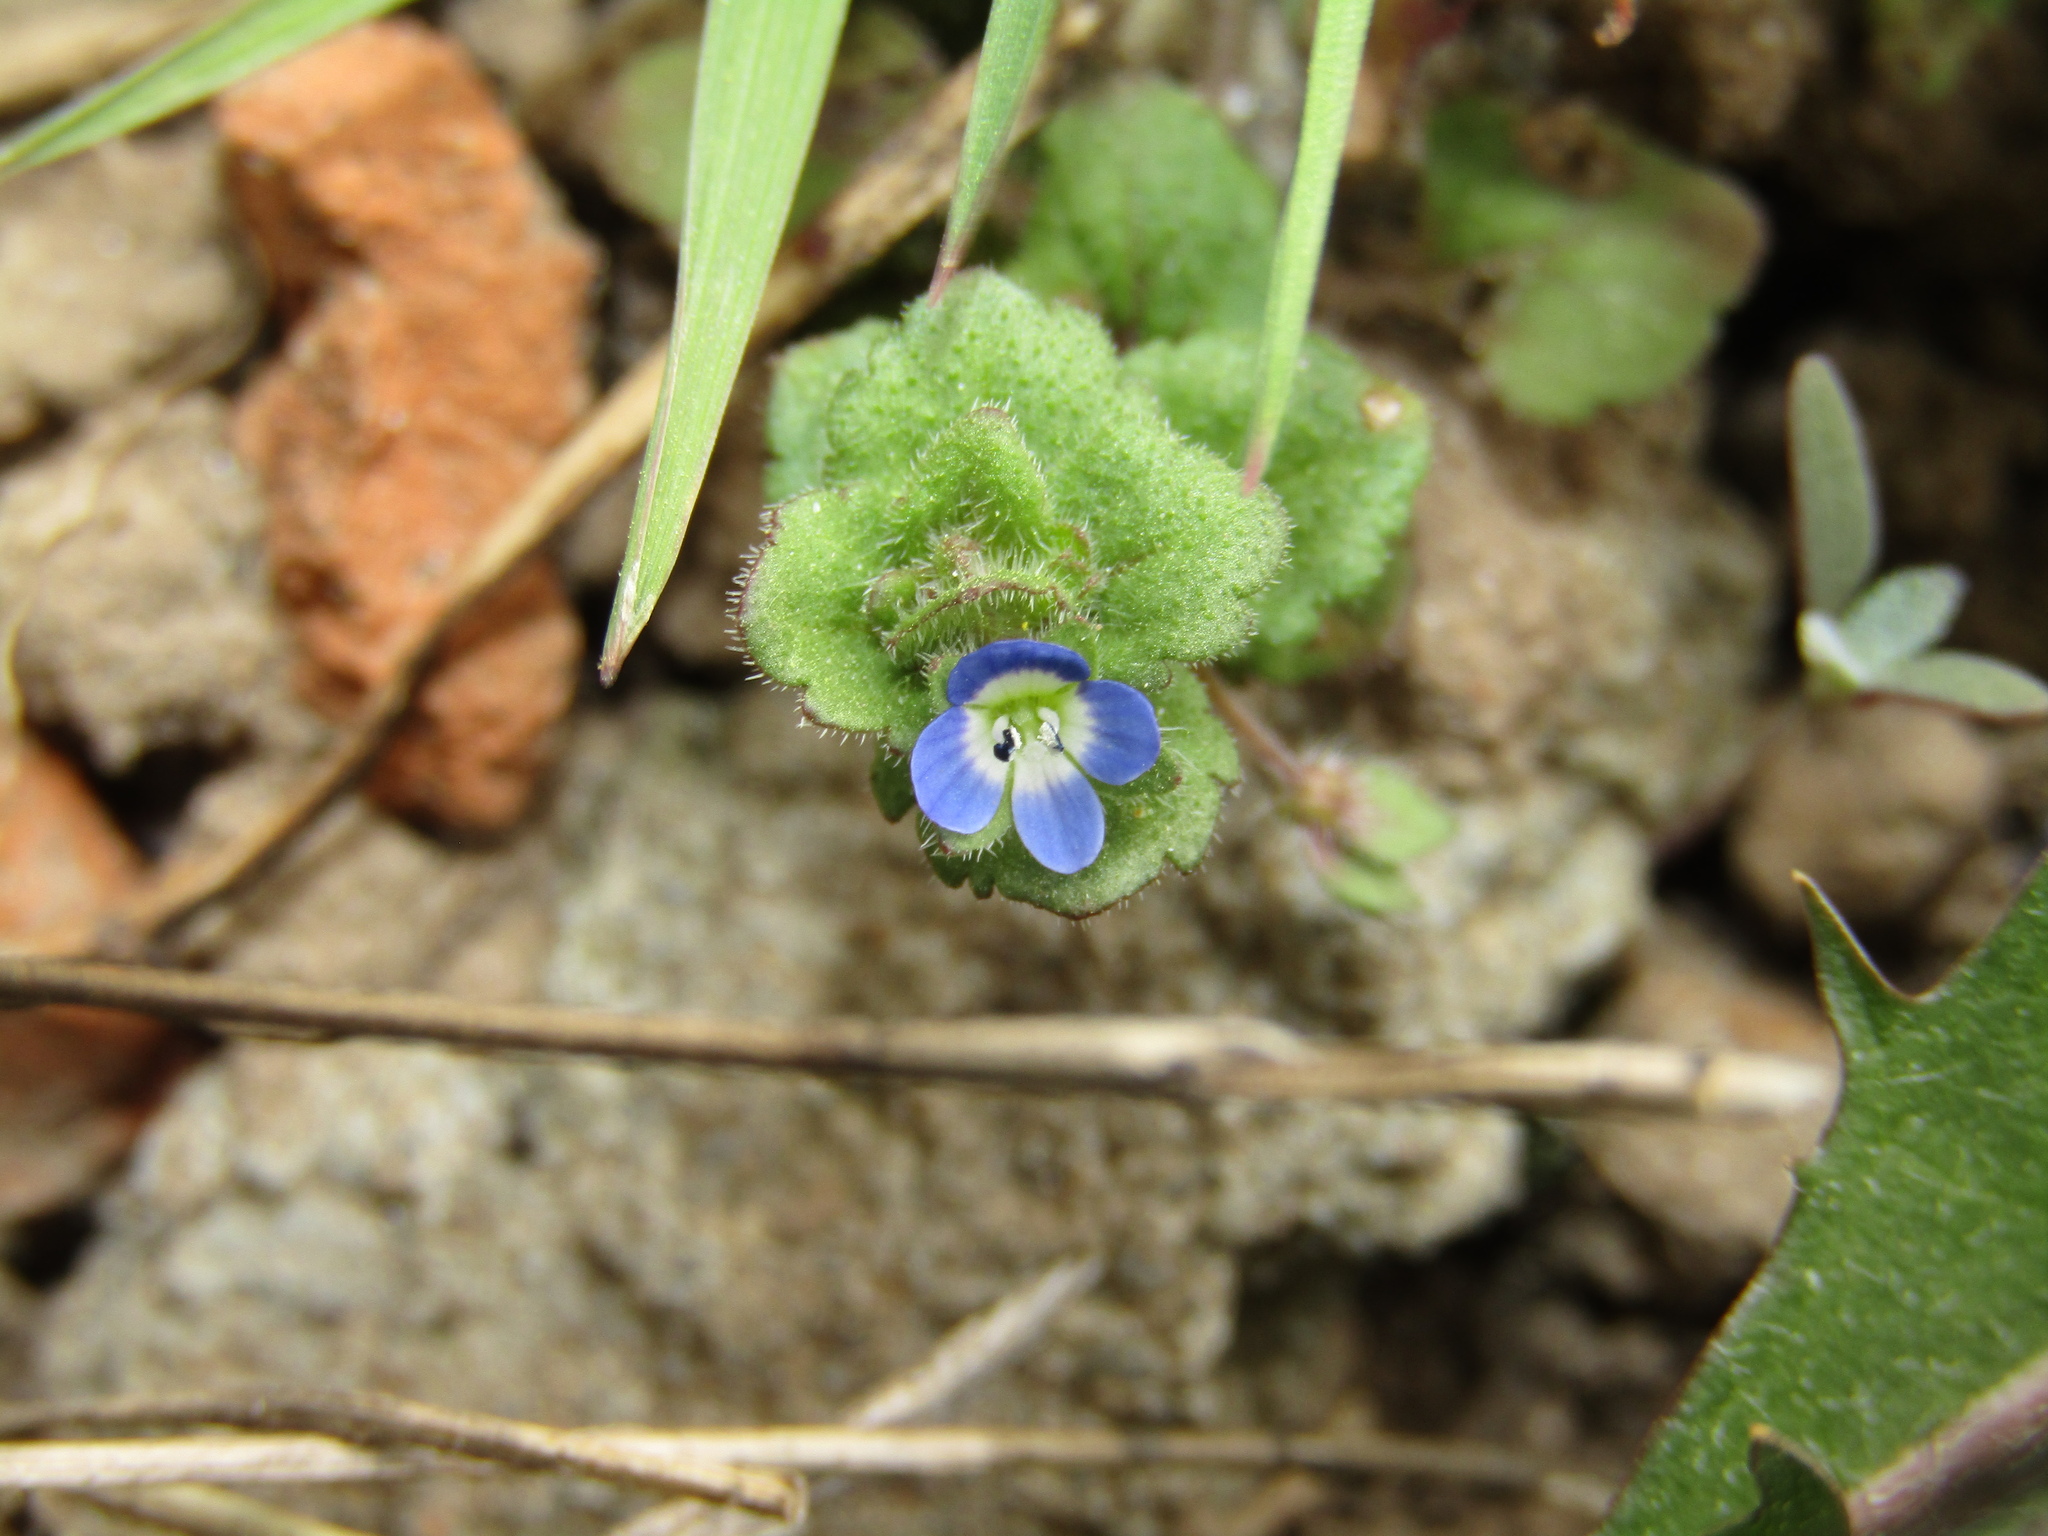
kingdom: Plantae
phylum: Tracheophyta
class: Magnoliopsida
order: Lamiales
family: Plantaginaceae
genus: Veronica
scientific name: Veronica opaca
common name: Dark speedwell
